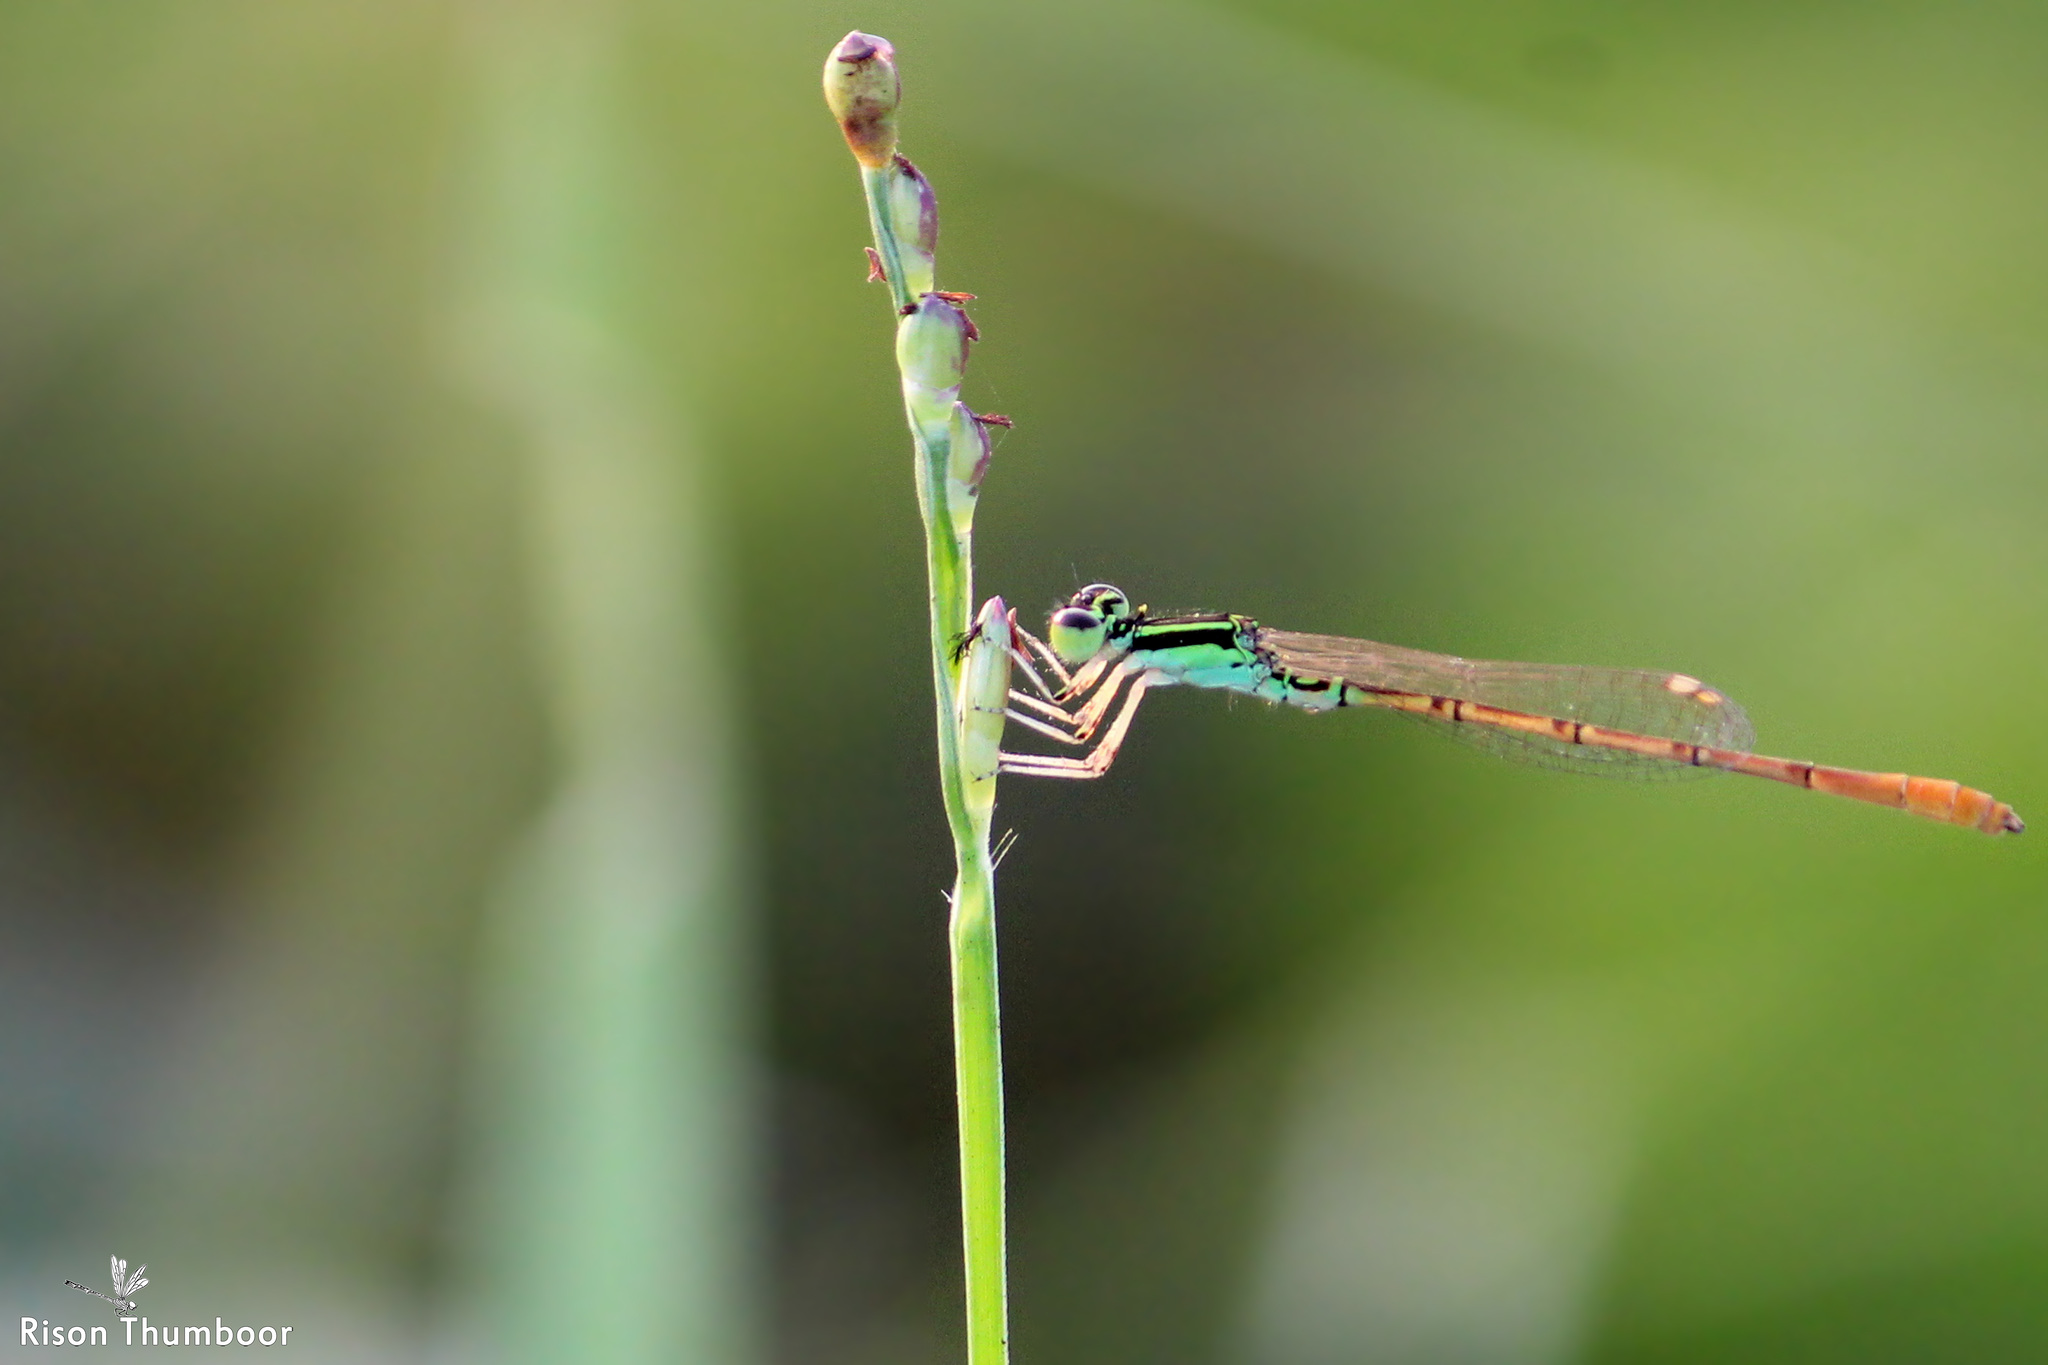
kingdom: Animalia
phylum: Arthropoda
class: Insecta
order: Odonata
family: Coenagrionidae
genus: Agriocnemis
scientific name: Agriocnemis keralensis
